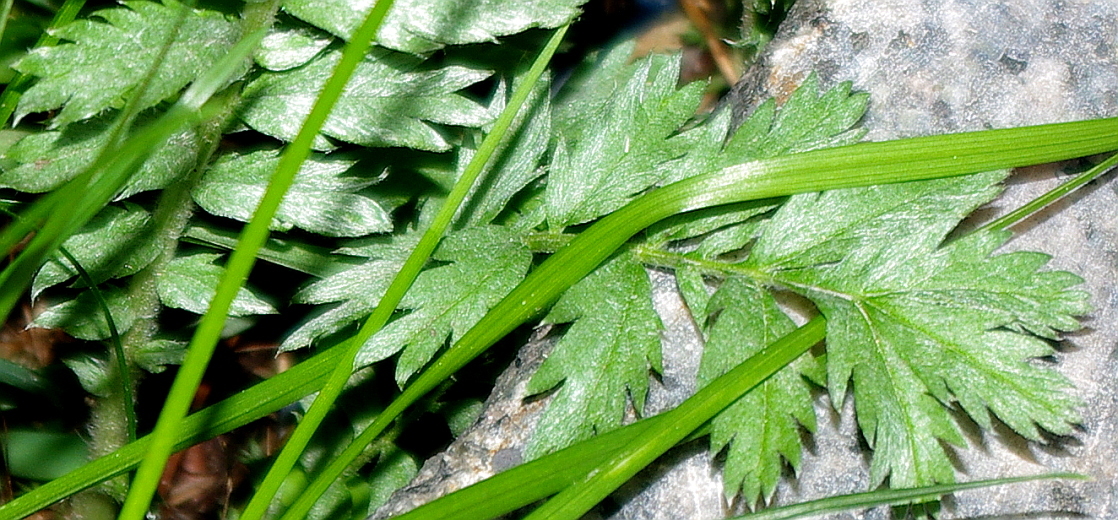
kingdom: Plantae
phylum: Tracheophyta
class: Magnoliopsida
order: Rosales
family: Rosaceae
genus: Argentina
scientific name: Argentina anserina
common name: Common silverweed
